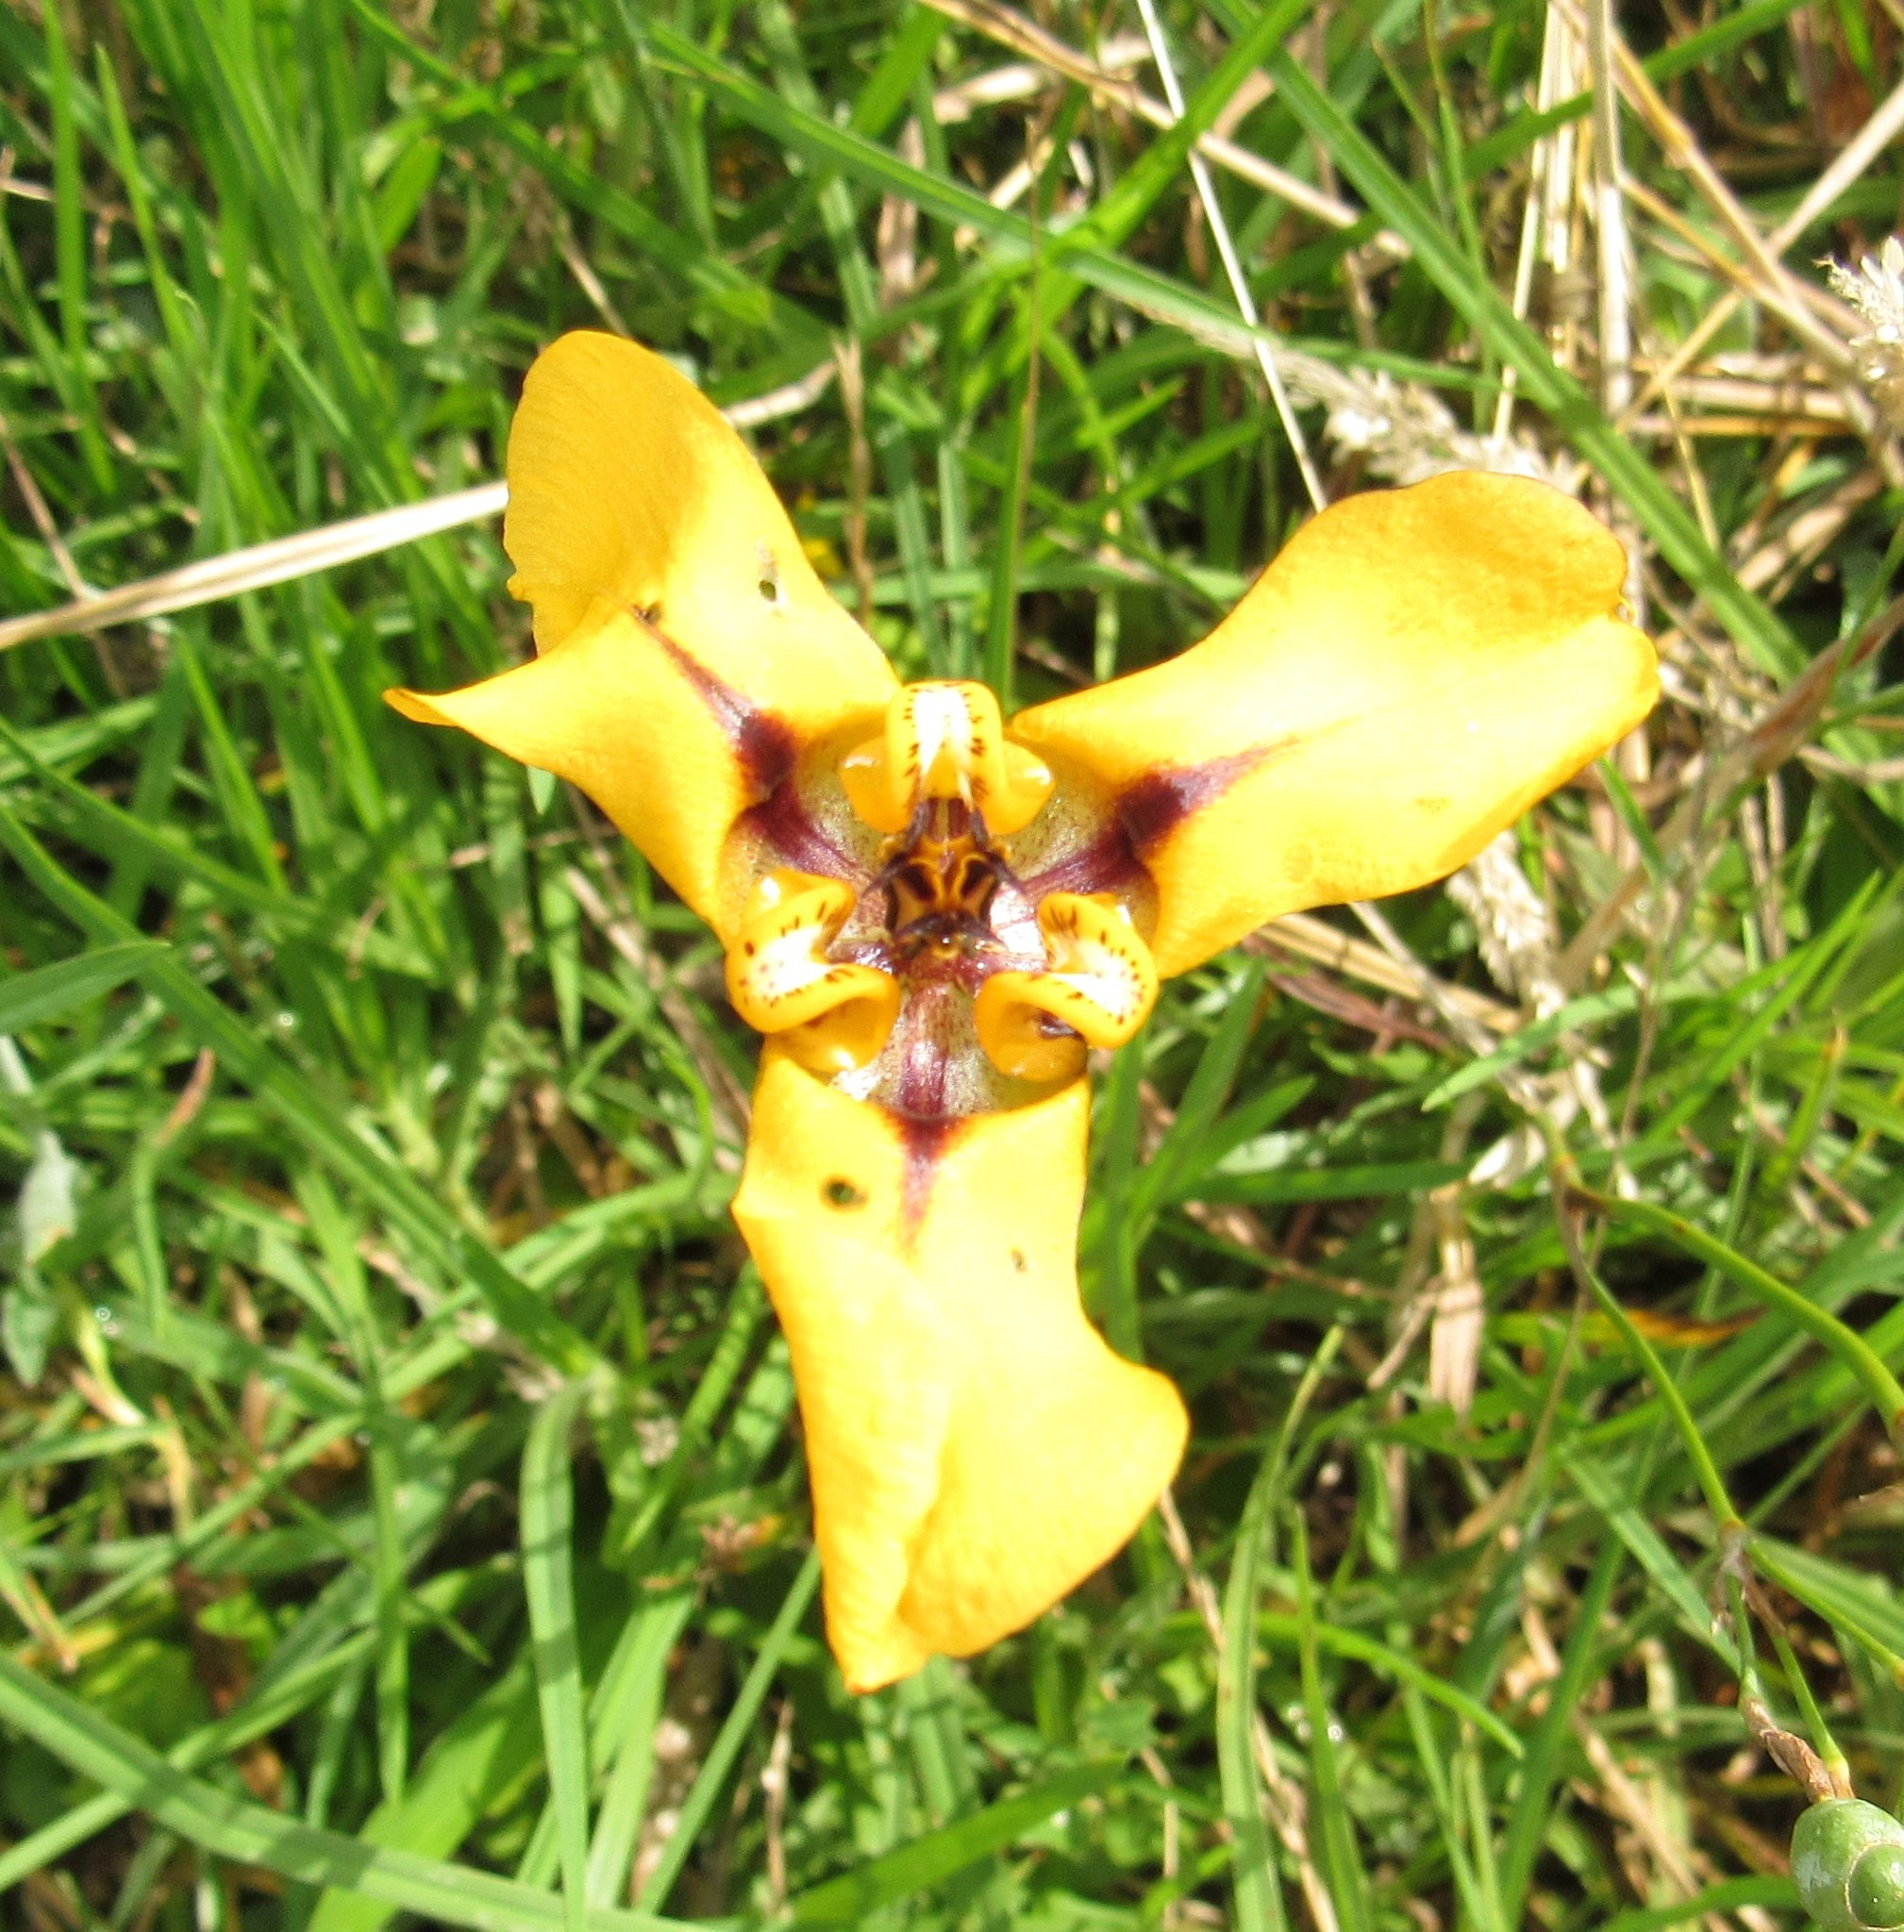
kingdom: Plantae
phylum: Tracheophyta
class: Liliopsida
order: Asparagales
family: Iridaceae
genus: Cypella
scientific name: Cypella herbertii
